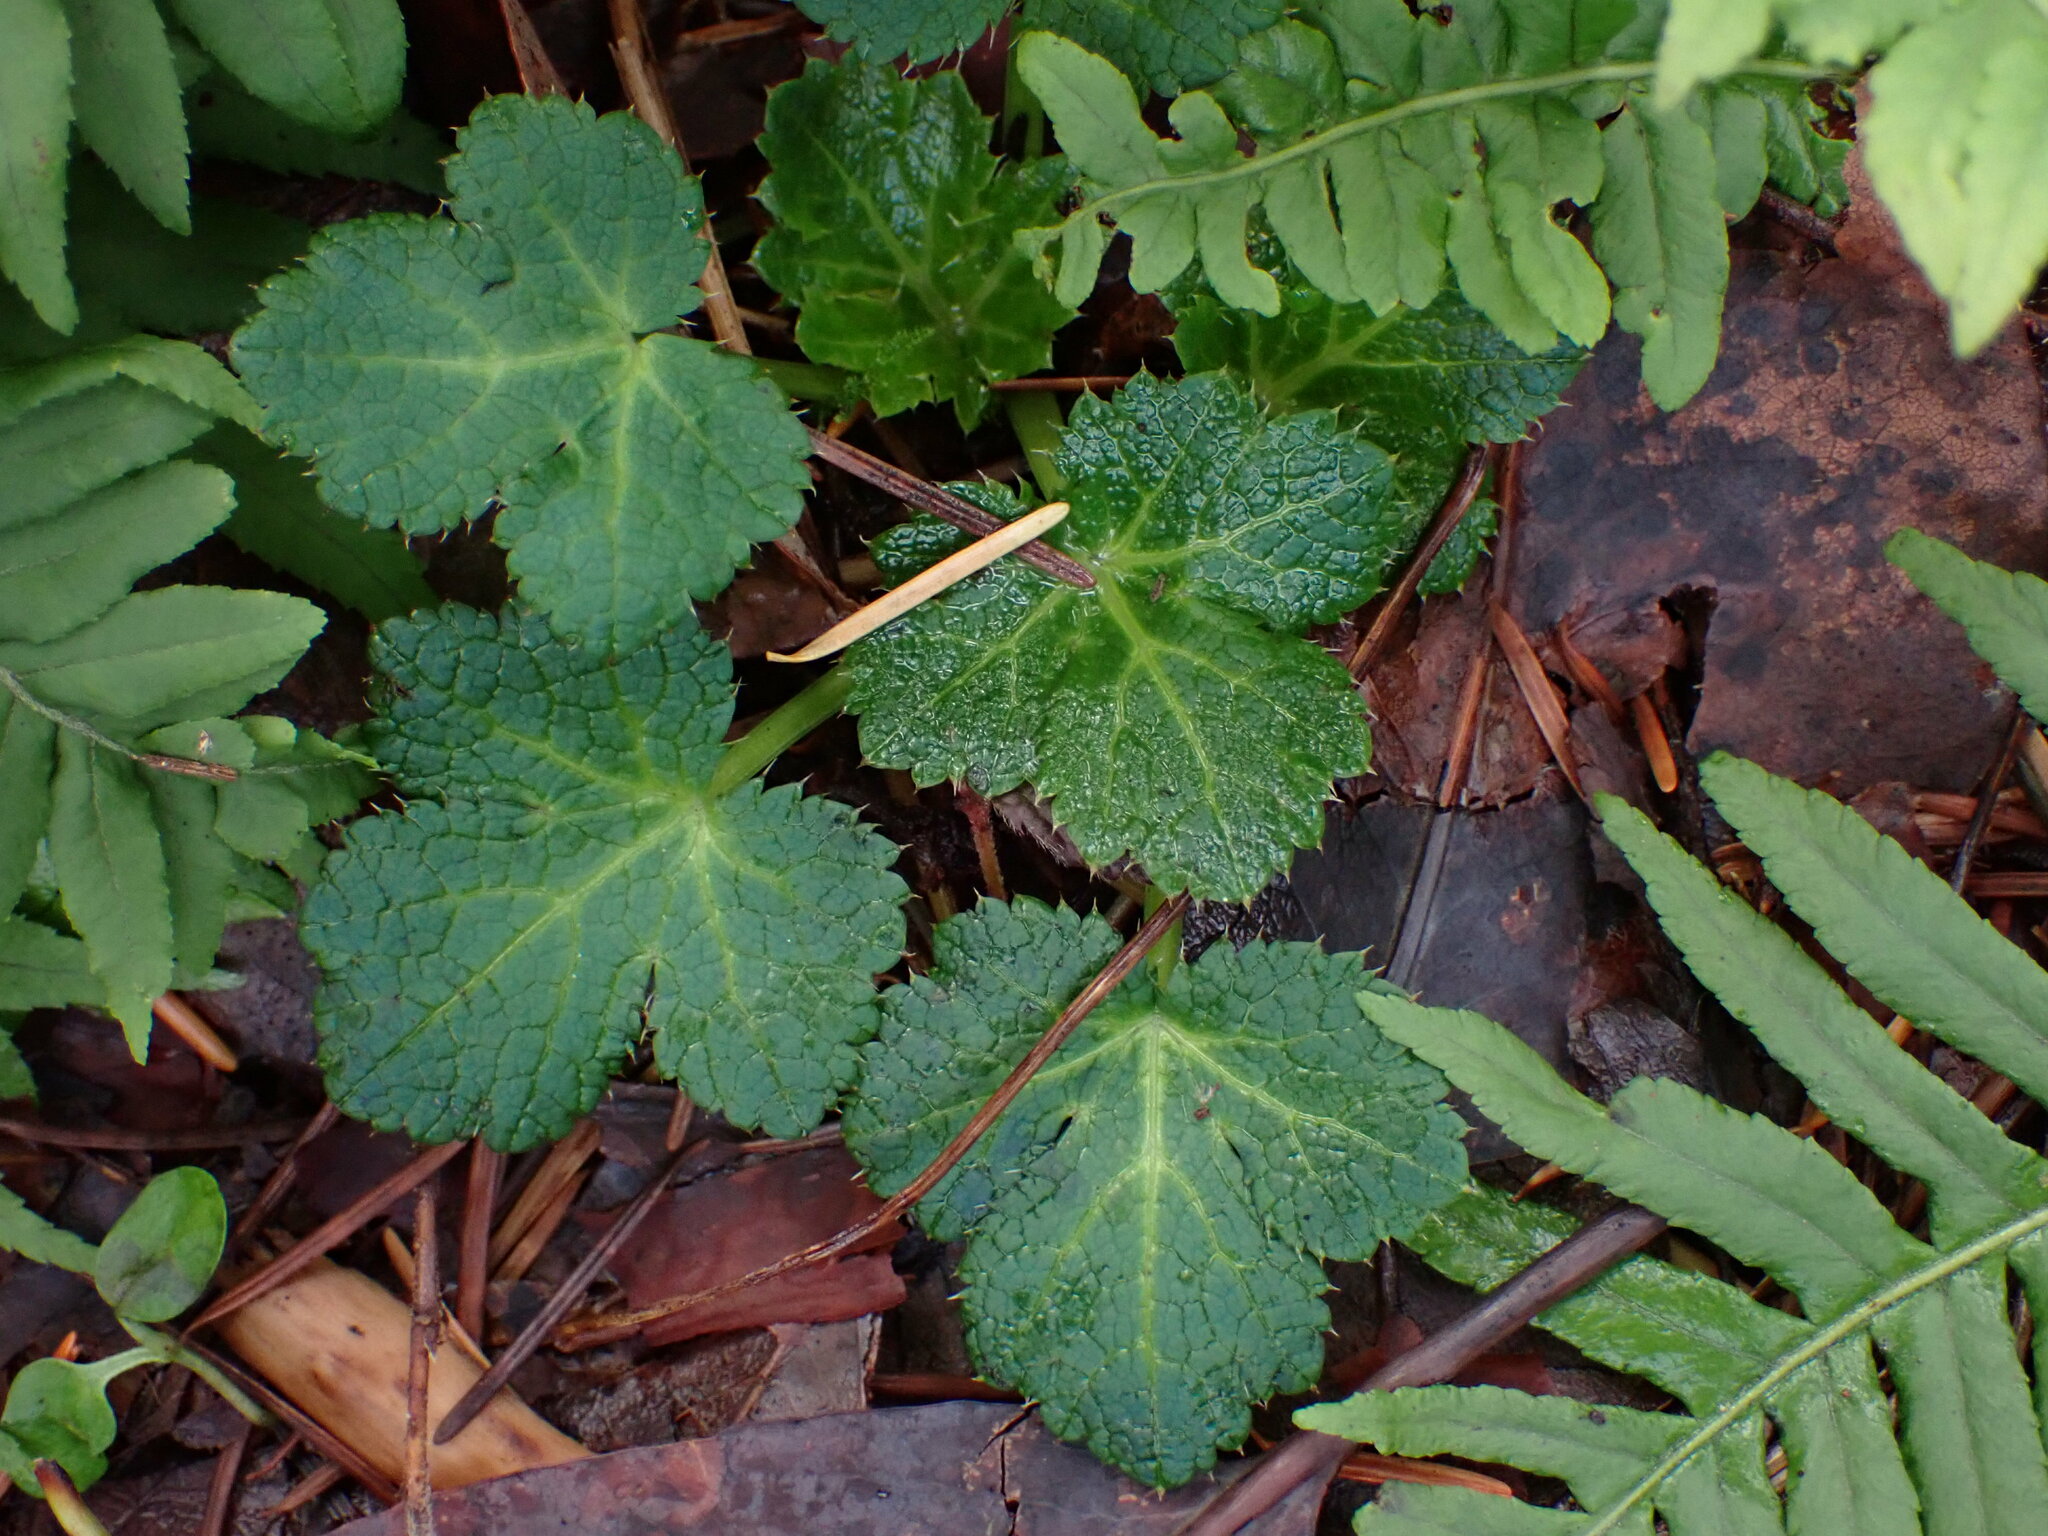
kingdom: Plantae
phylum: Tracheophyta
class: Magnoliopsida
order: Apiales
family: Apiaceae
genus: Sanicula
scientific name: Sanicula crassicaulis
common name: Western snakeroot
